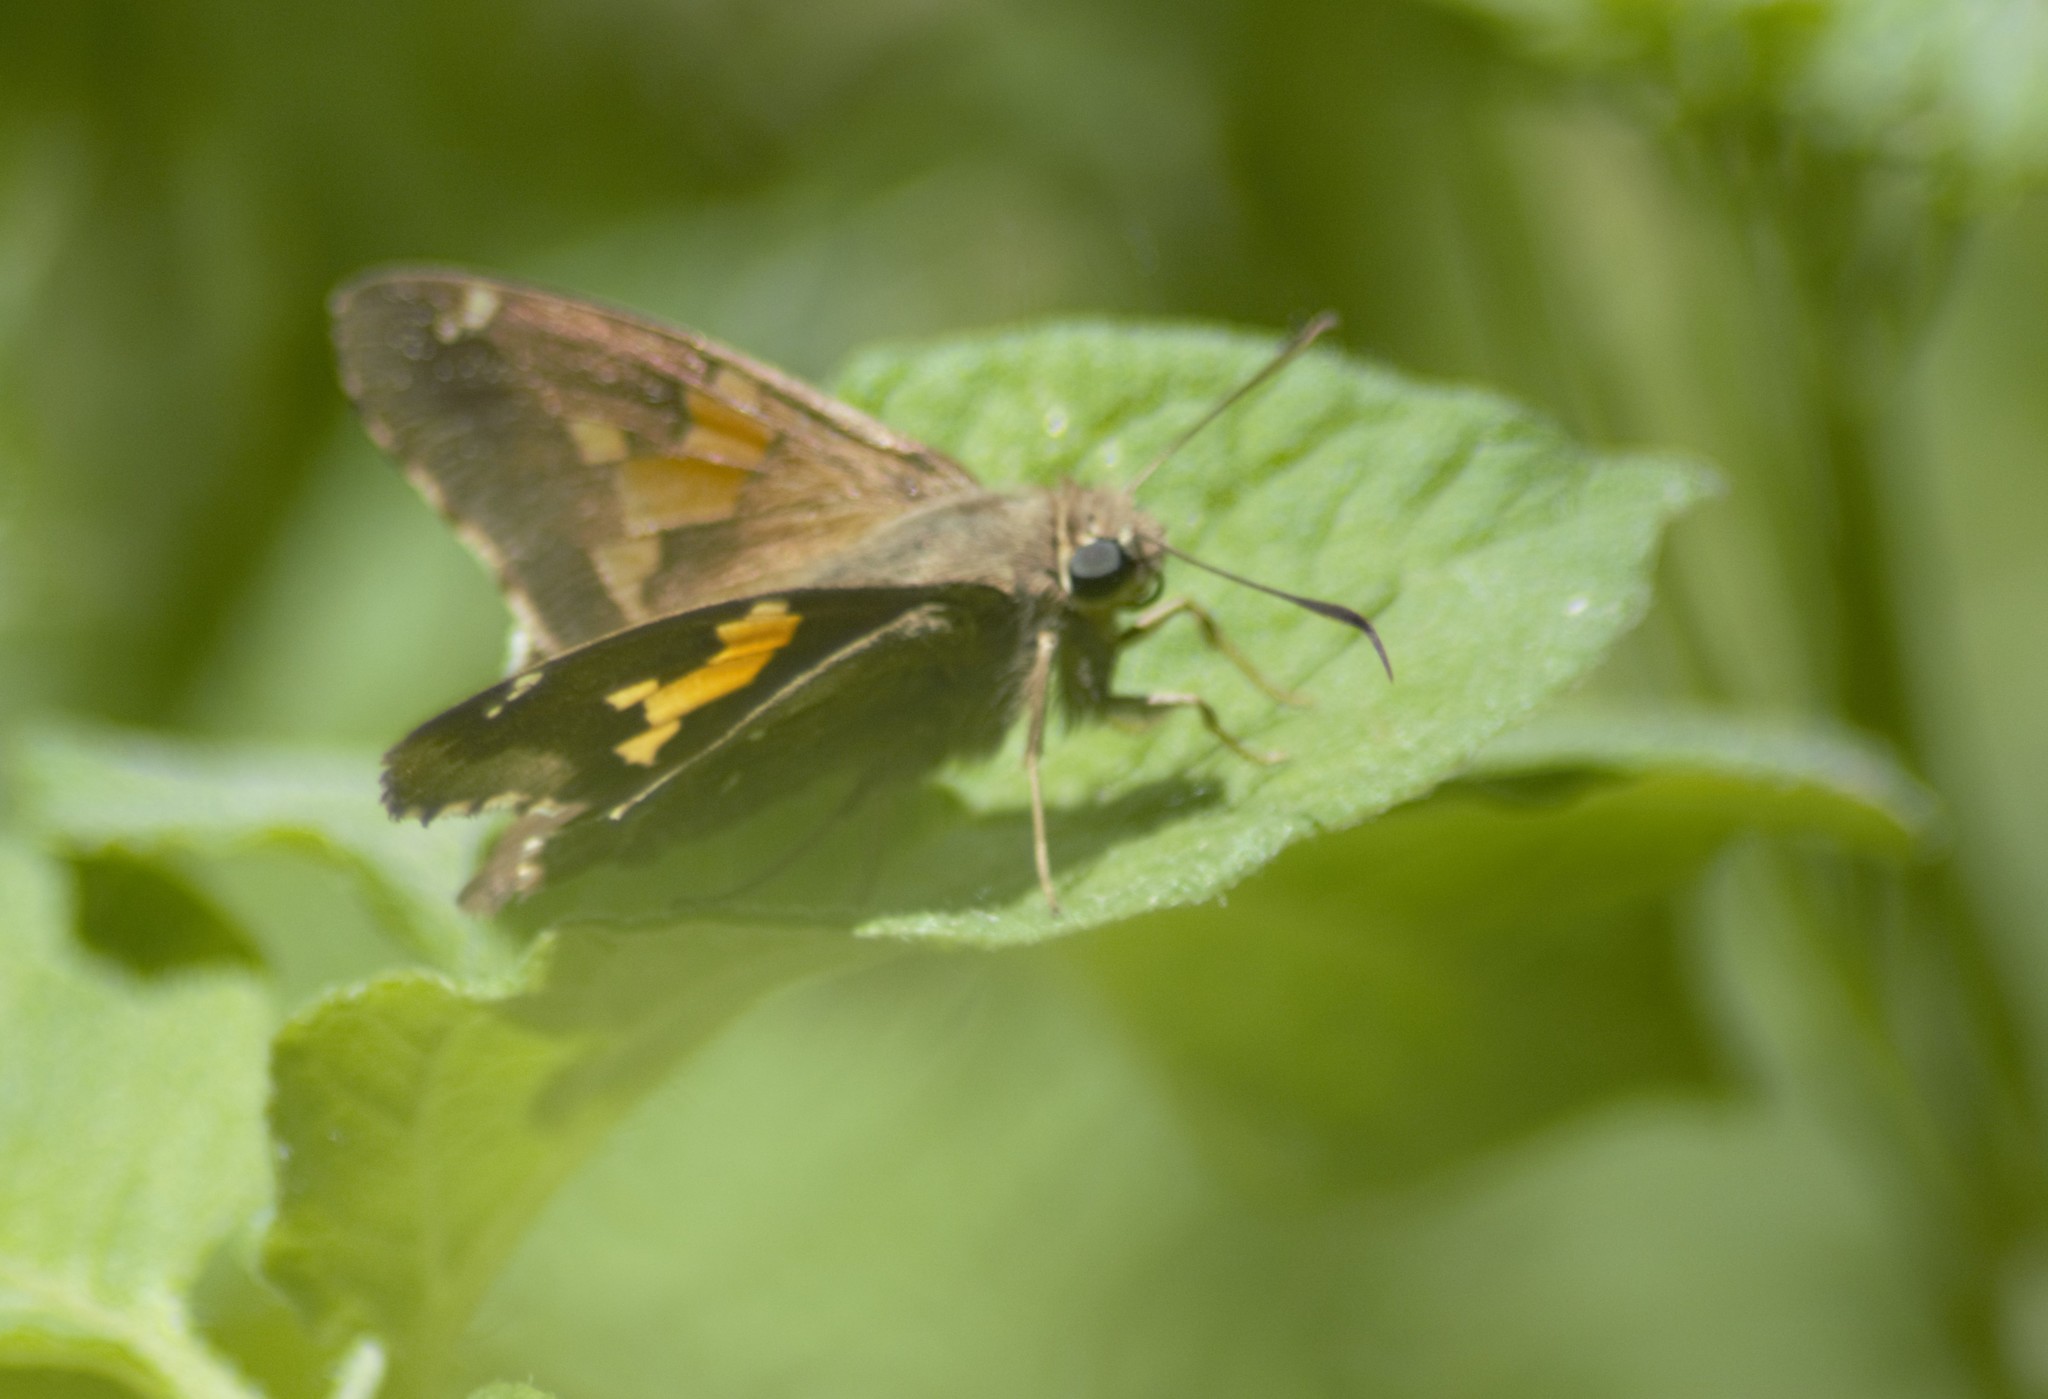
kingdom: Animalia
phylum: Arthropoda
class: Insecta
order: Lepidoptera
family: Hesperiidae
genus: Epargyreus
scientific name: Epargyreus tmolis
